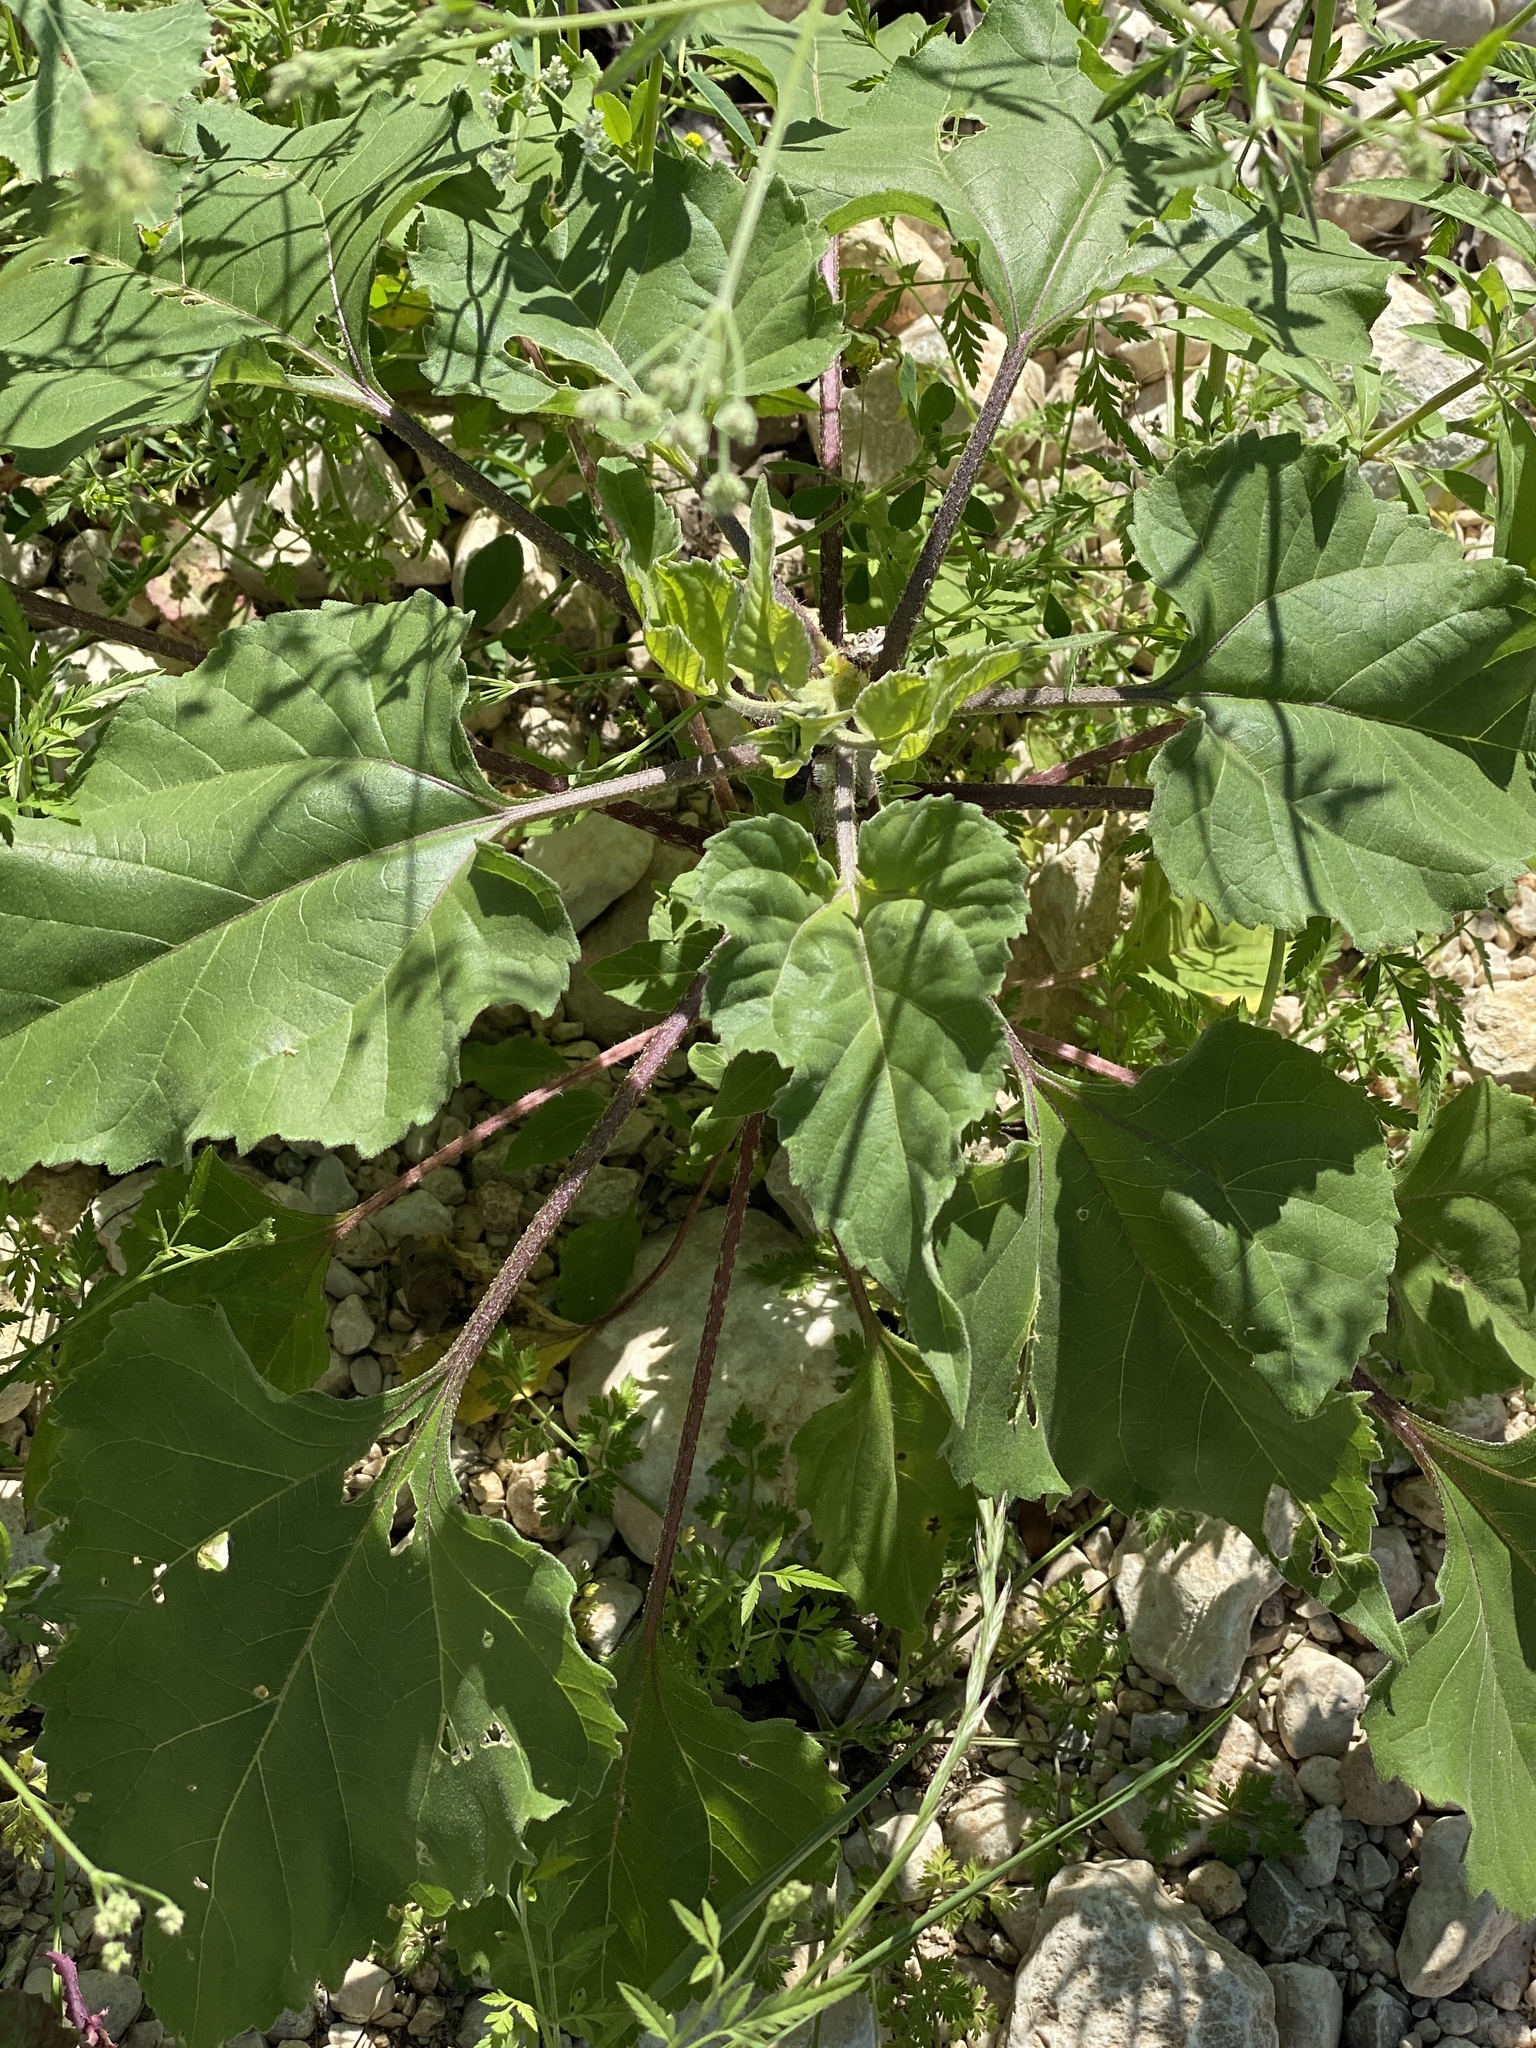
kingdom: Plantae
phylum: Tracheophyta
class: Magnoliopsida
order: Asterales
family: Asteraceae
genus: Helianthus
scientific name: Helianthus annuus
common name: Sunflower
